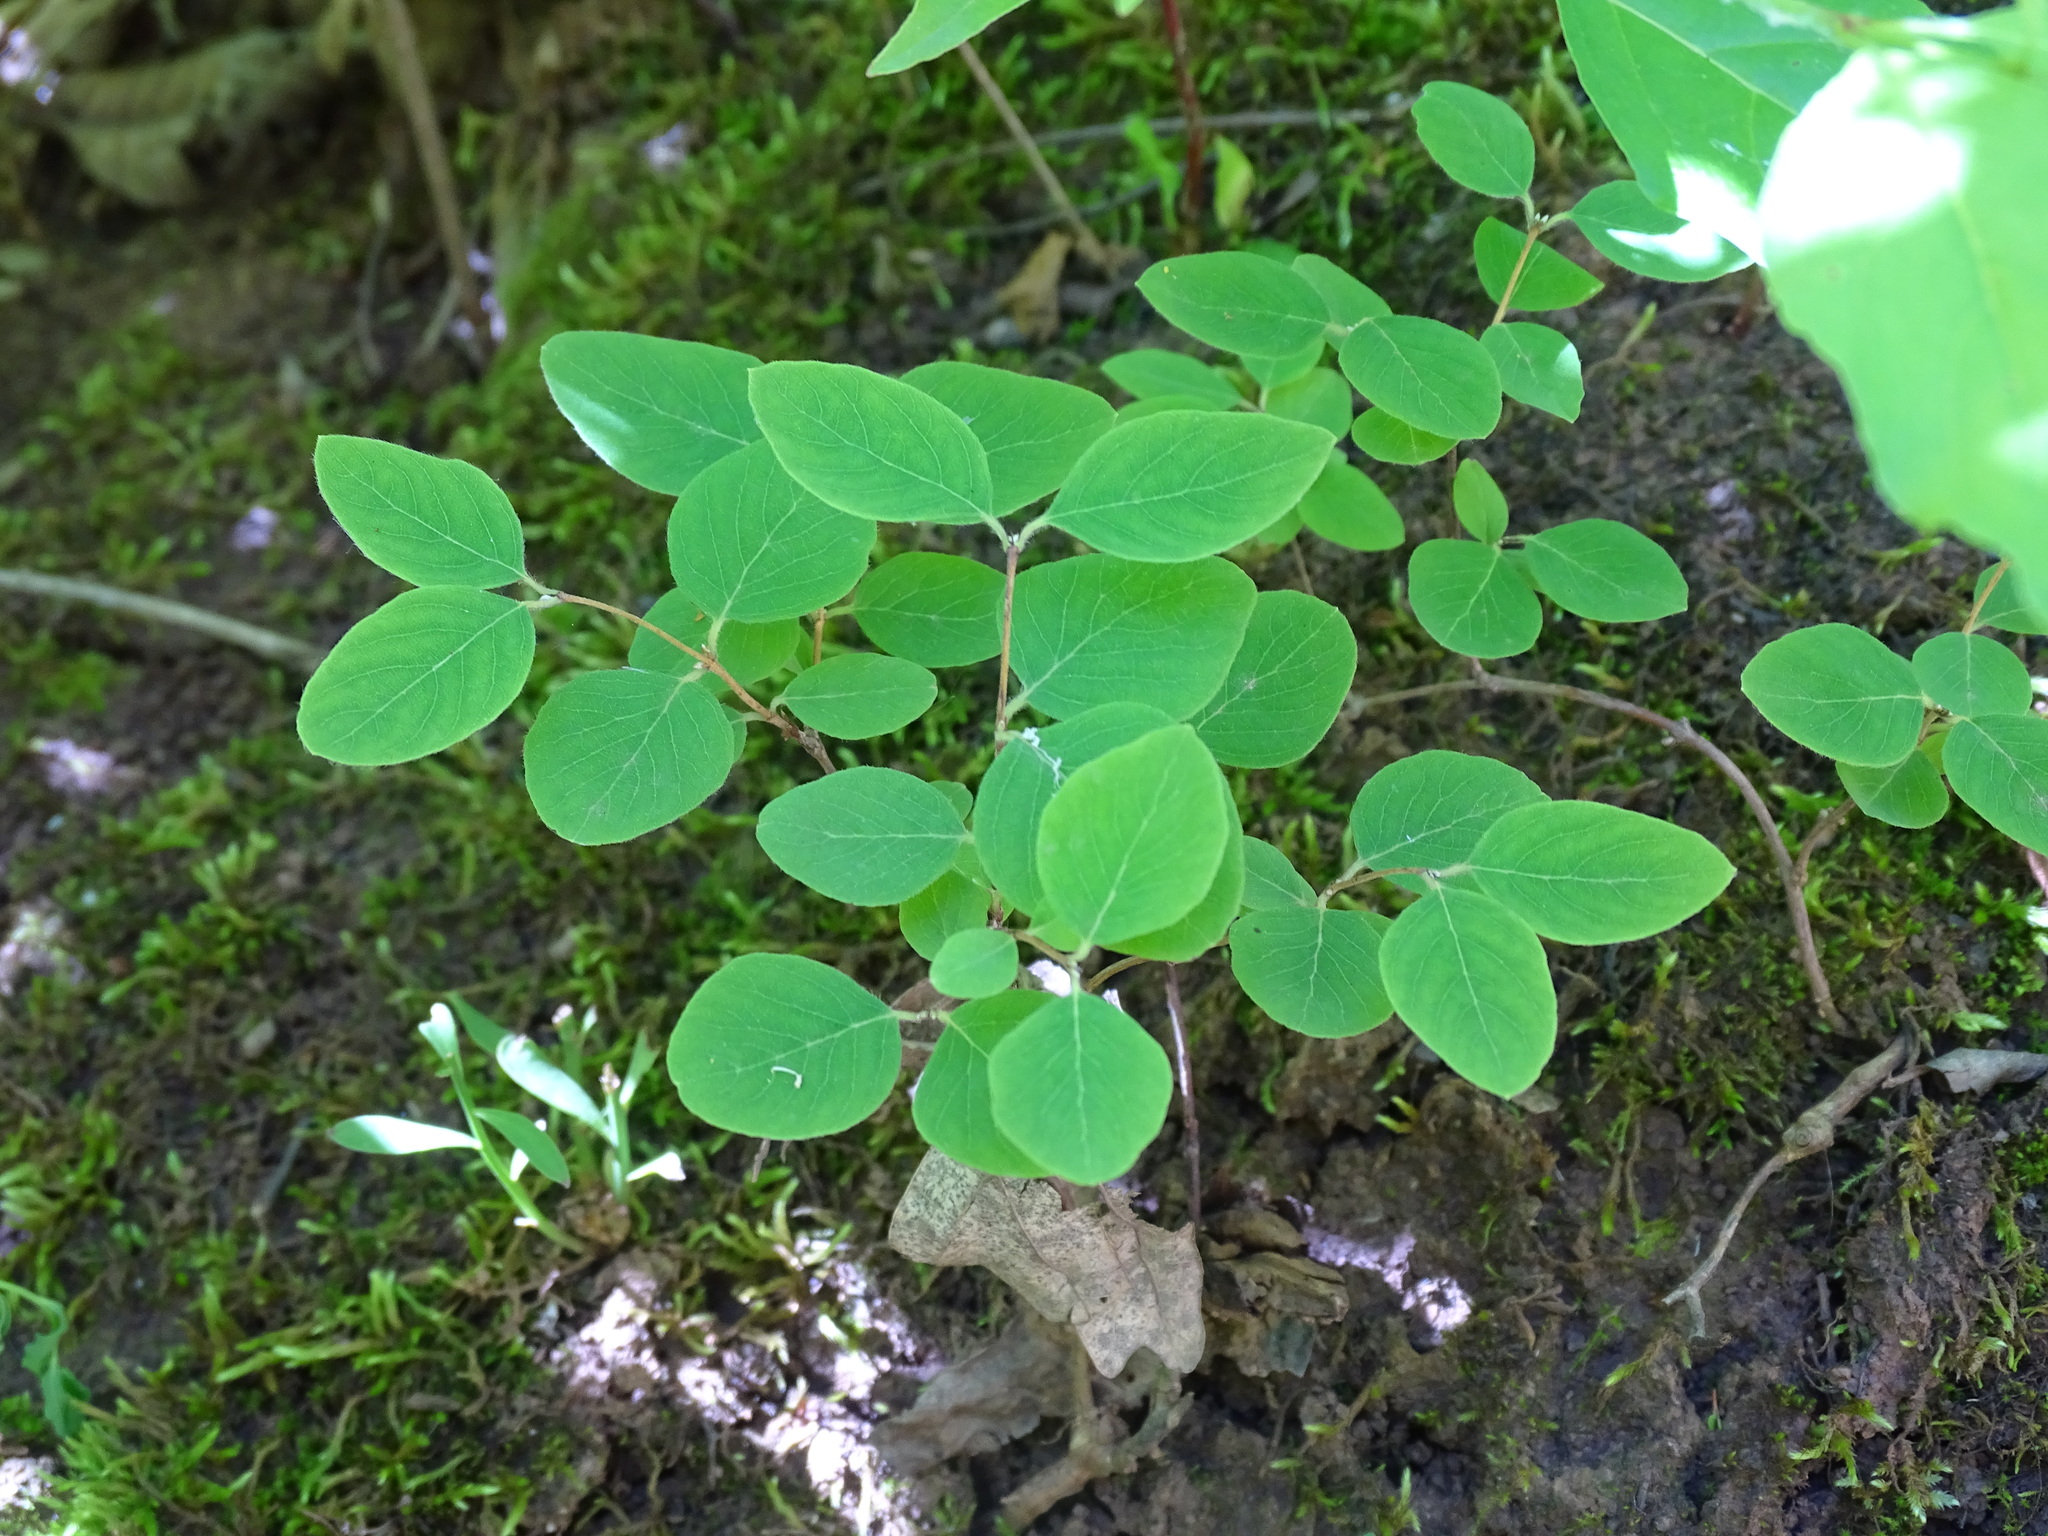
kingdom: Plantae
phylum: Tracheophyta
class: Magnoliopsida
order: Dipsacales
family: Caprifoliaceae
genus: Symphoricarpos
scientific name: Symphoricarpos albus
